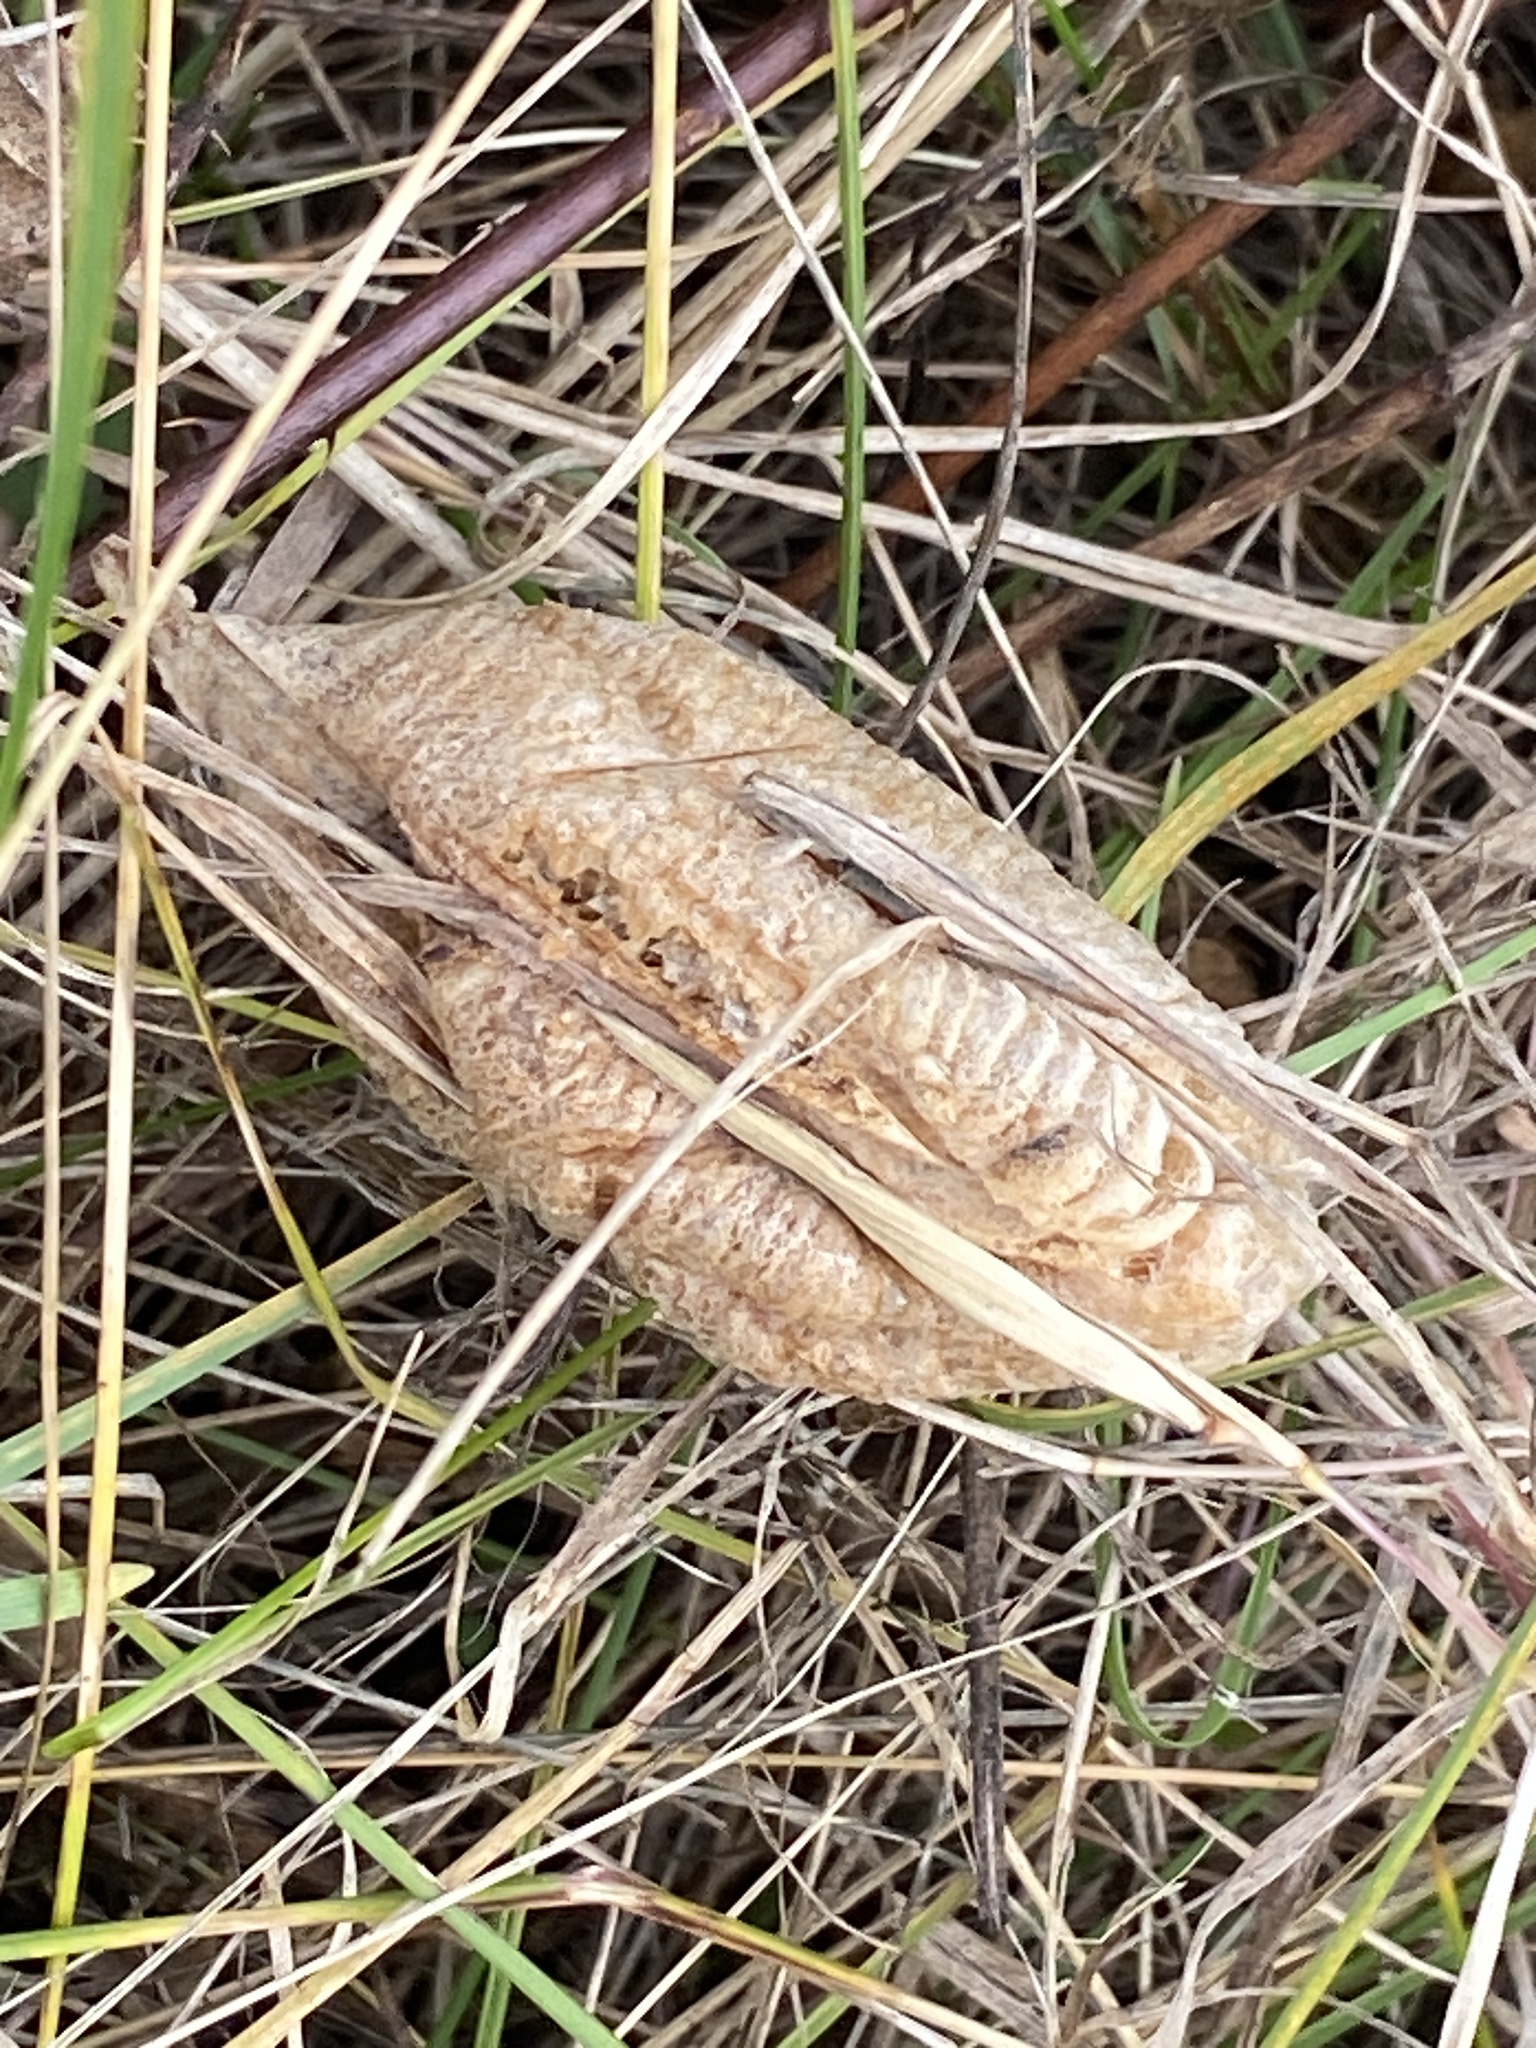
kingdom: Animalia
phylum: Arthropoda
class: Insecta
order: Mantodea
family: Mantidae
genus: Mantis
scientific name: Mantis religiosa
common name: Praying mantis
